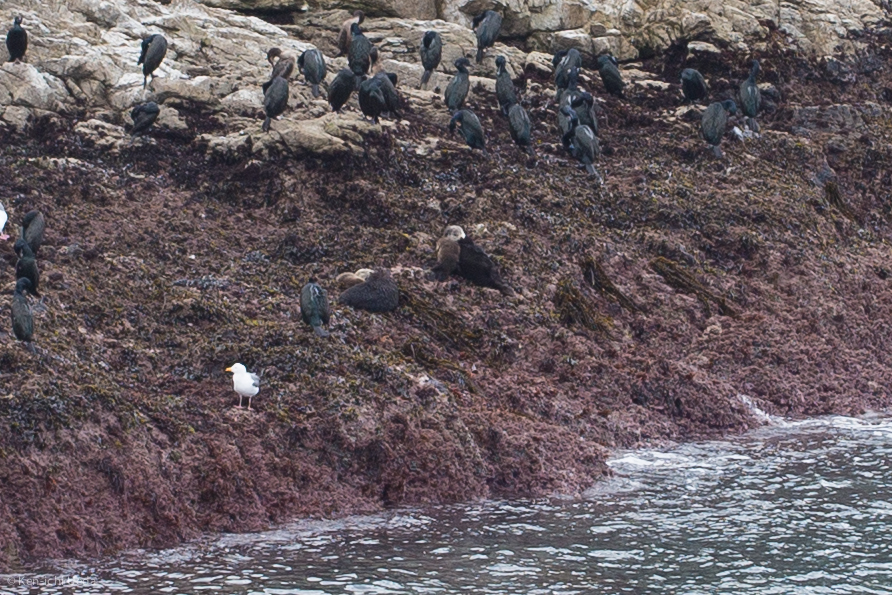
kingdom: Animalia
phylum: Chordata
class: Mammalia
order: Carnivora
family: Mustelidae
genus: Enhydra
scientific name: Enhydra lutris
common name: Sea otter
